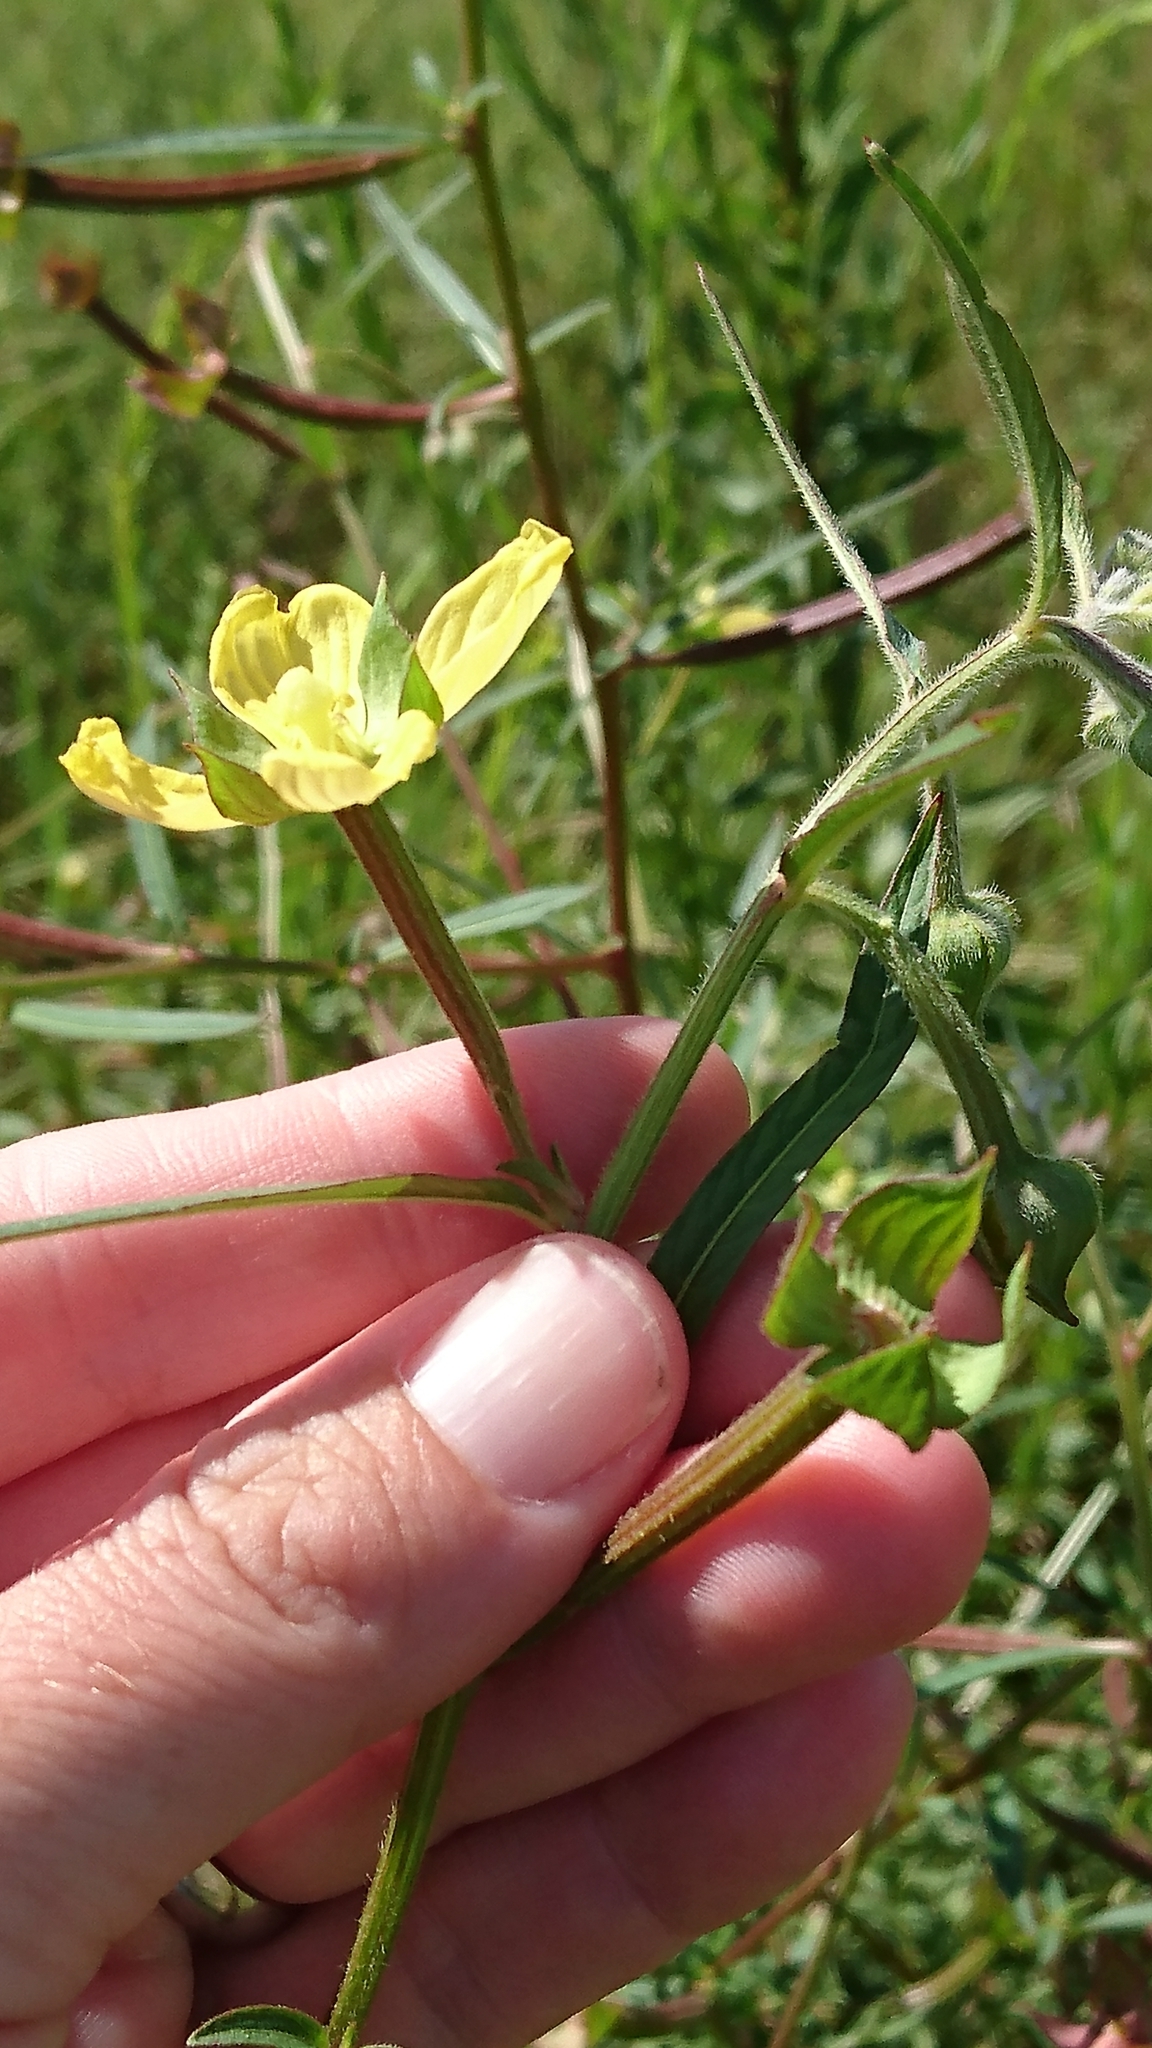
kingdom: Plantae
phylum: Tracheophyta
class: Magnoliopsida
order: Myrtales
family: Onagraceae
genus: Ludwigia
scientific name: Ludwigia octovalvis
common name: Water-primrose
